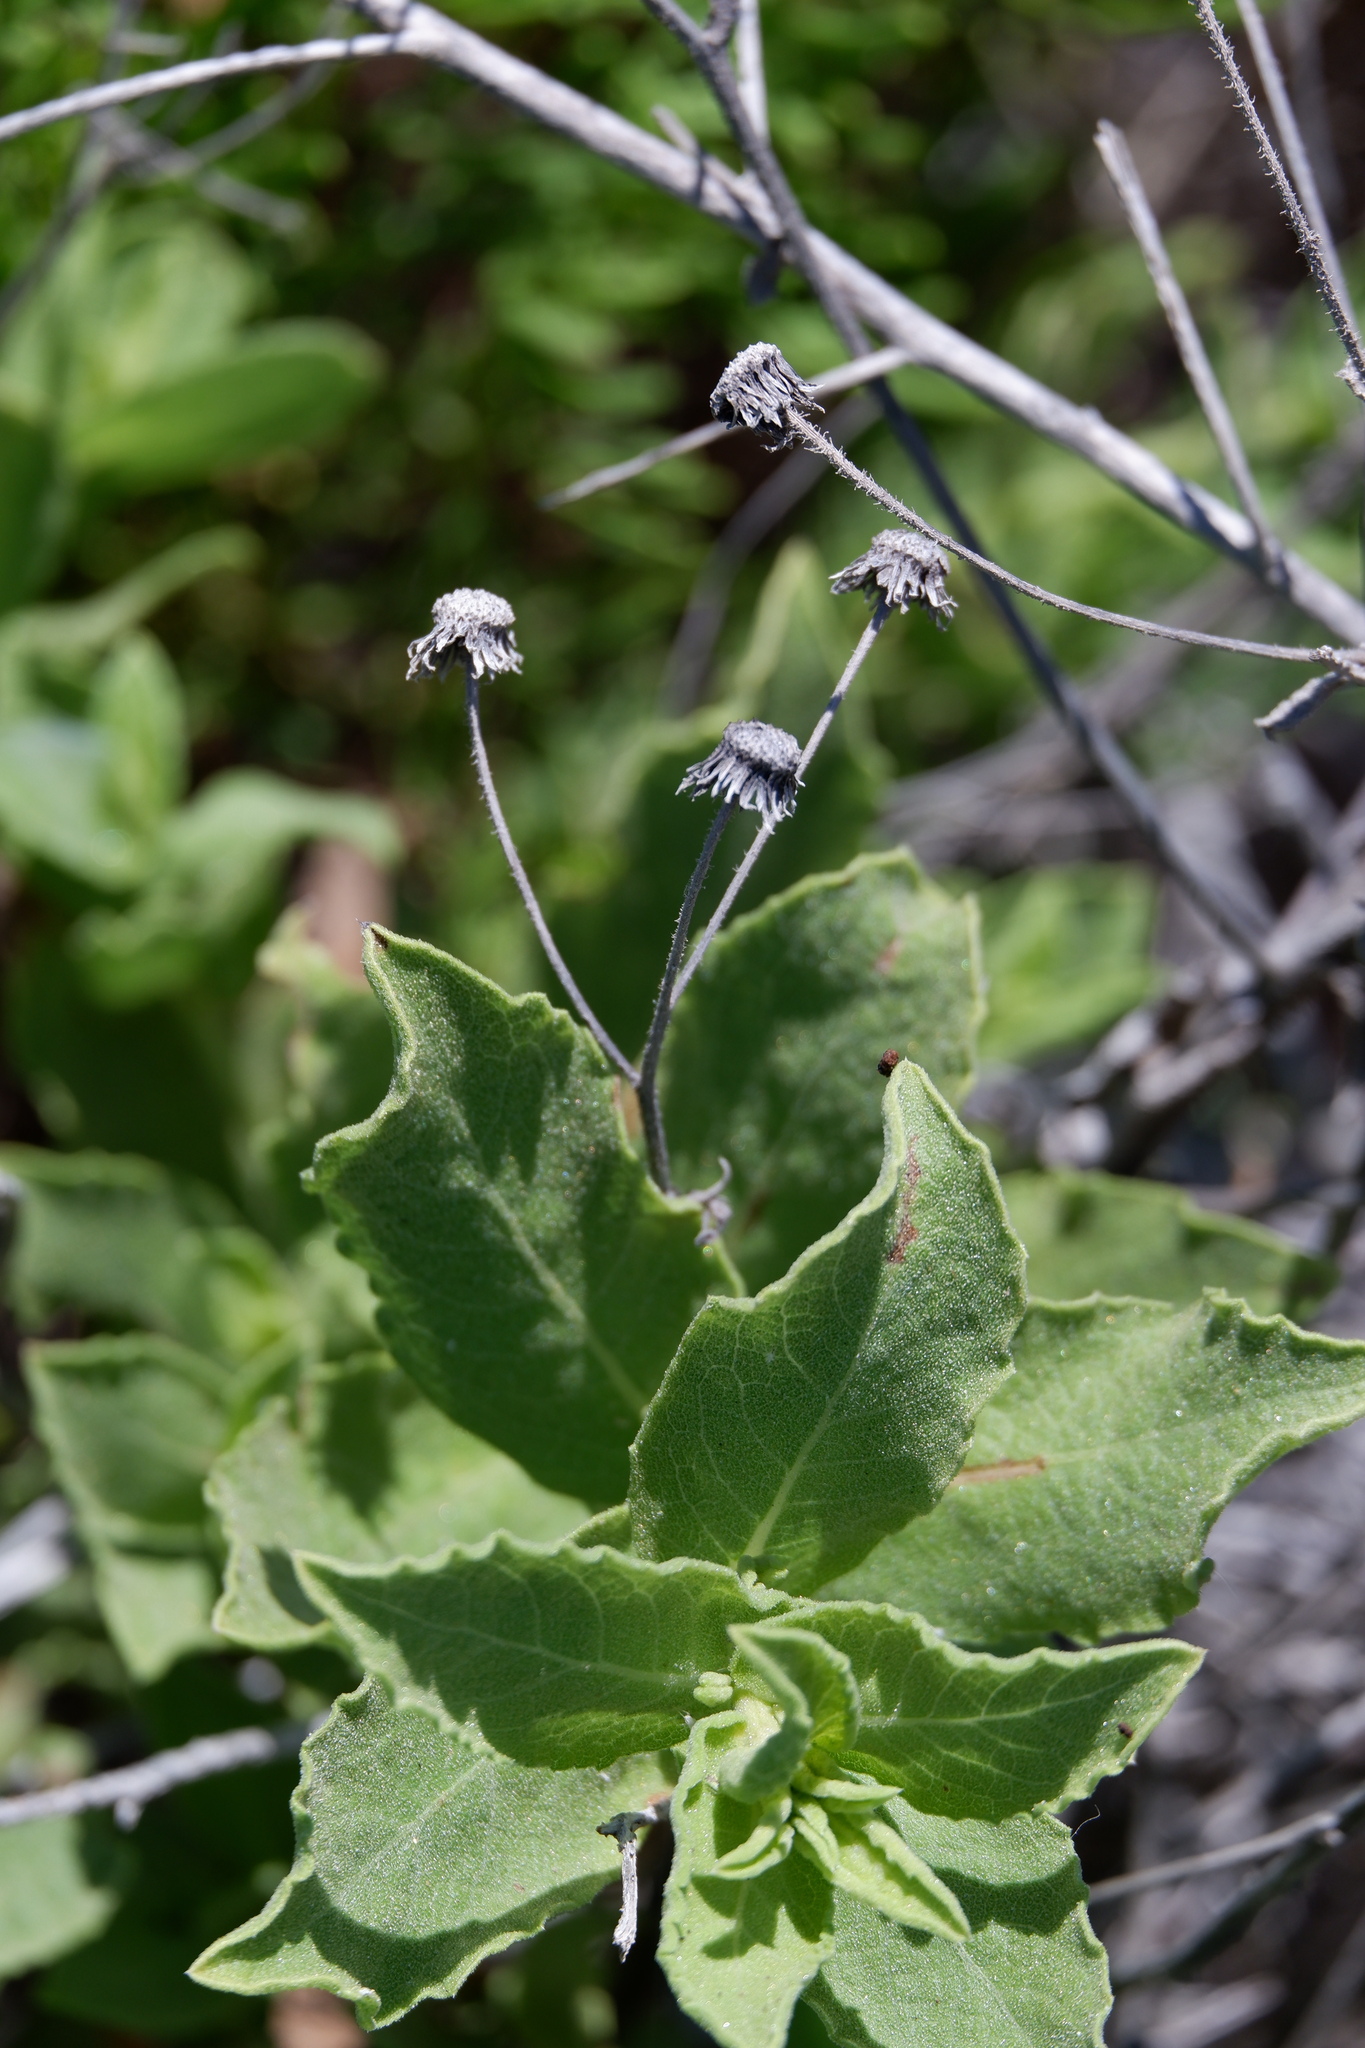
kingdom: Plantae
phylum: Tracheophyta
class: Magnoliopsida
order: Asterales
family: Asteraceae
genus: Heterotheca
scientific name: Heterotheca subaxillaris
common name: Camphorweed
